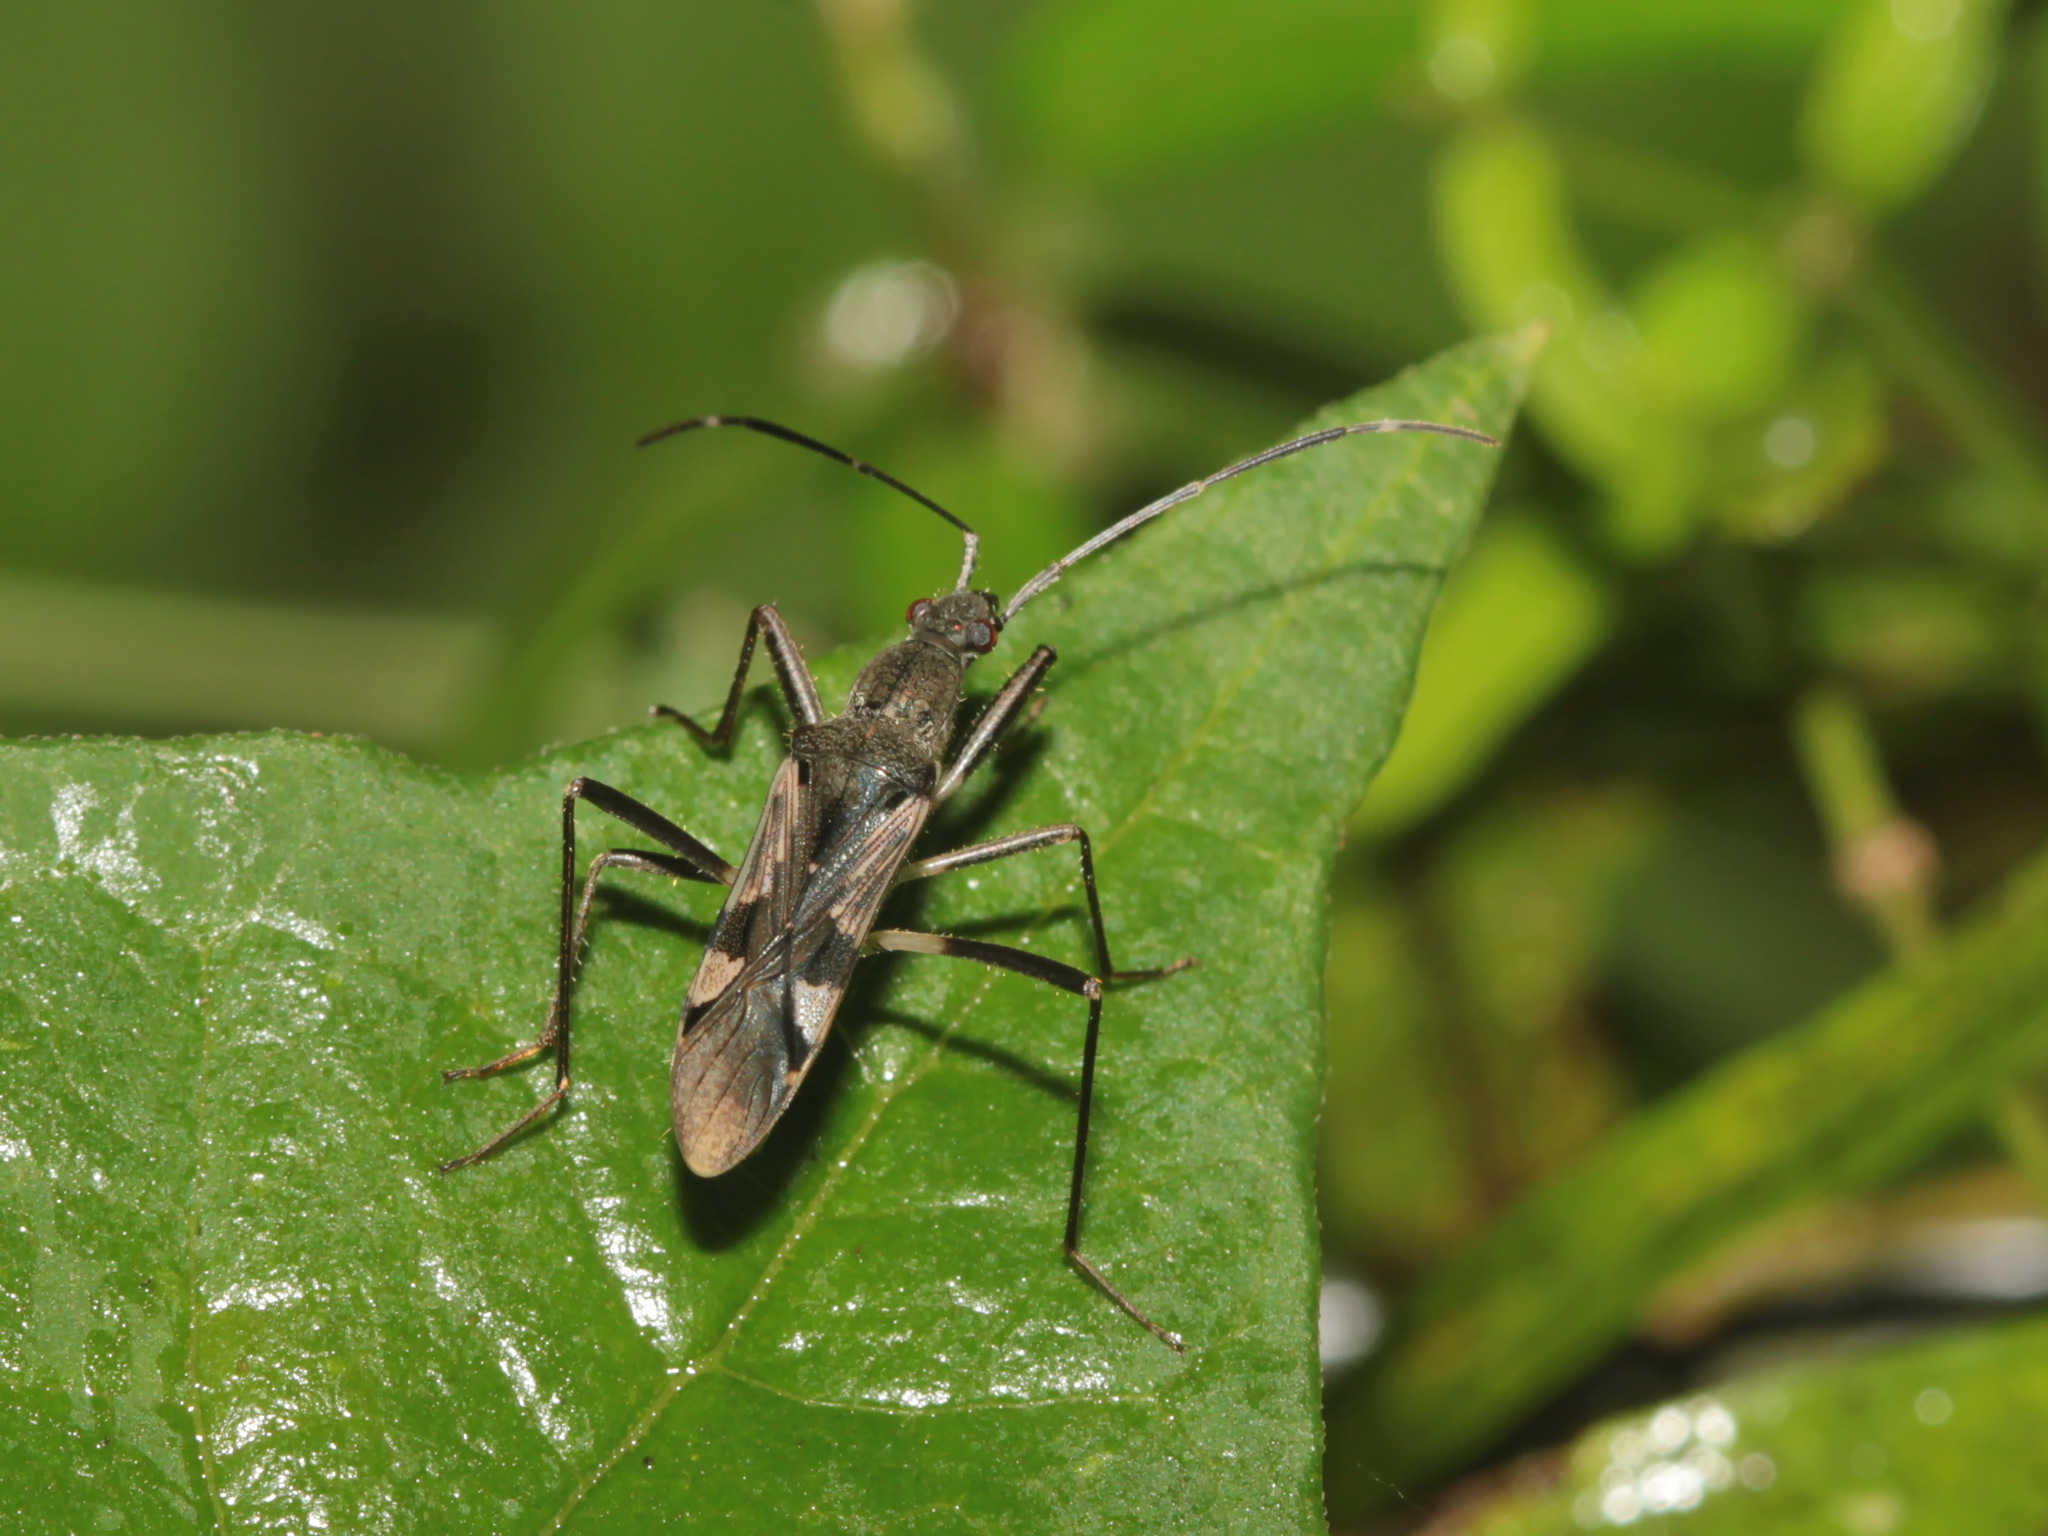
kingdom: Animalia
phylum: Arthropoda
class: Insecta
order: Hemiptera
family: Rhyparochromidae
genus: Metochus
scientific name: Metochus uniguttatus
